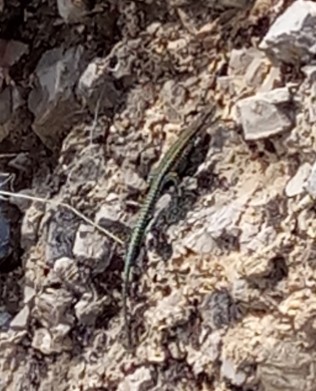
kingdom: Animalia
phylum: Chordata
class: Squamata
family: Lacertidae
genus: Podarcis
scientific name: Podarcis vaucheri
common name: Vaucher's wall lizard
